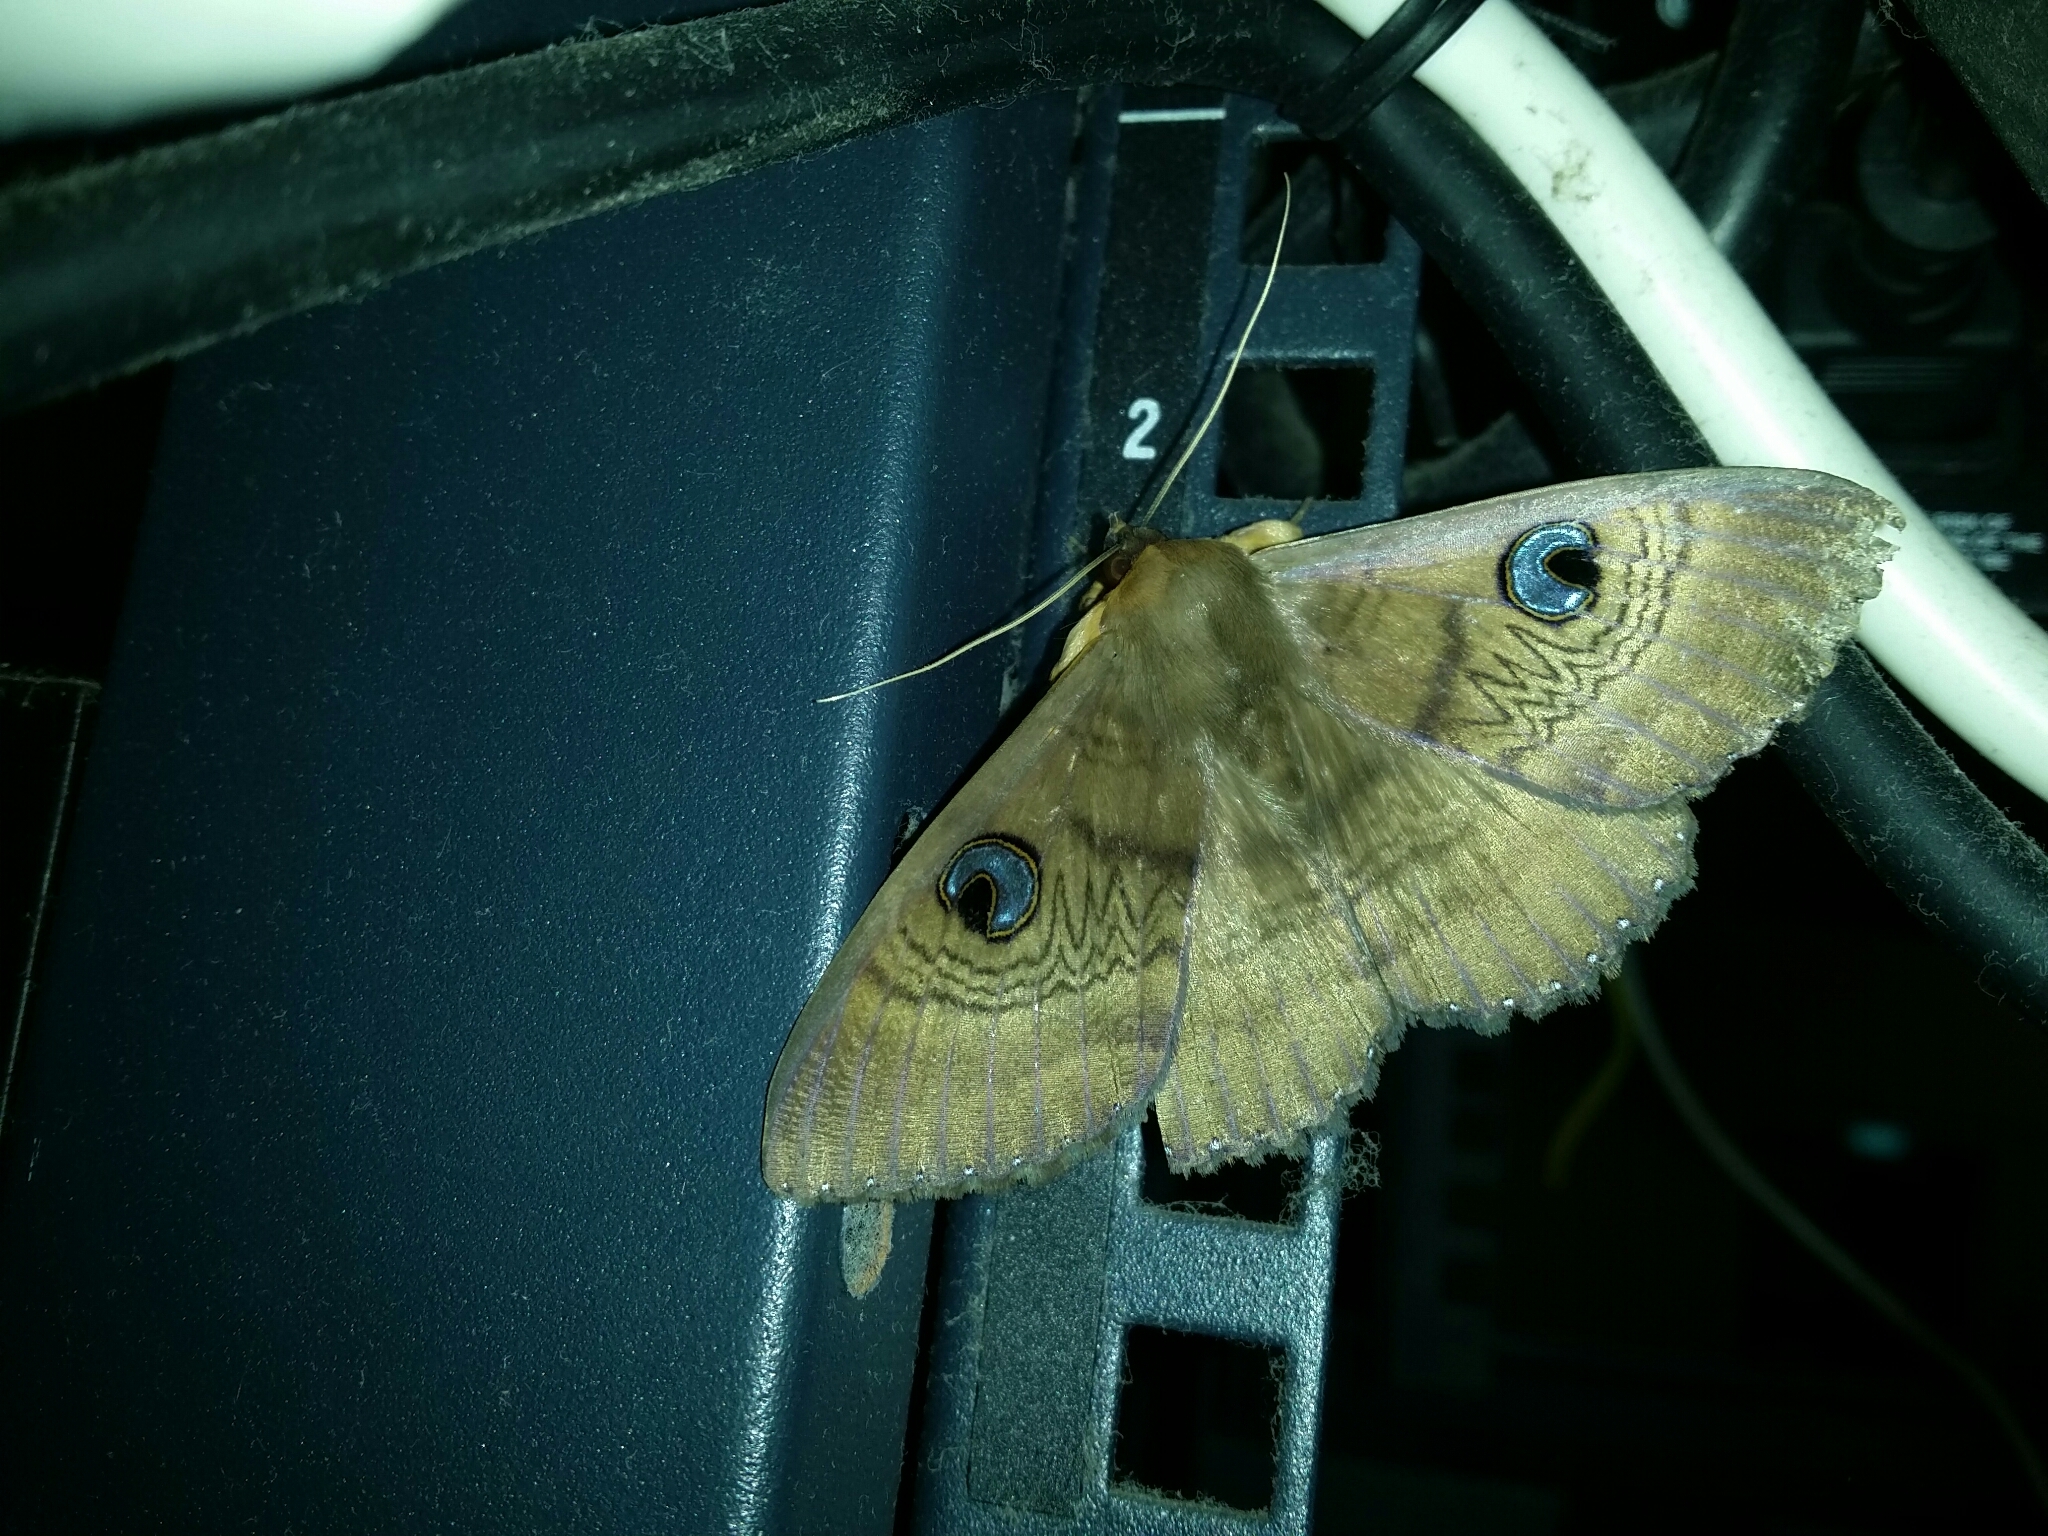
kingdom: Animalia
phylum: Arthropoda
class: Insecta
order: Lepidoptera
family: Erebidae
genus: Dasypodia
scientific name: Dasypodia selenophora
